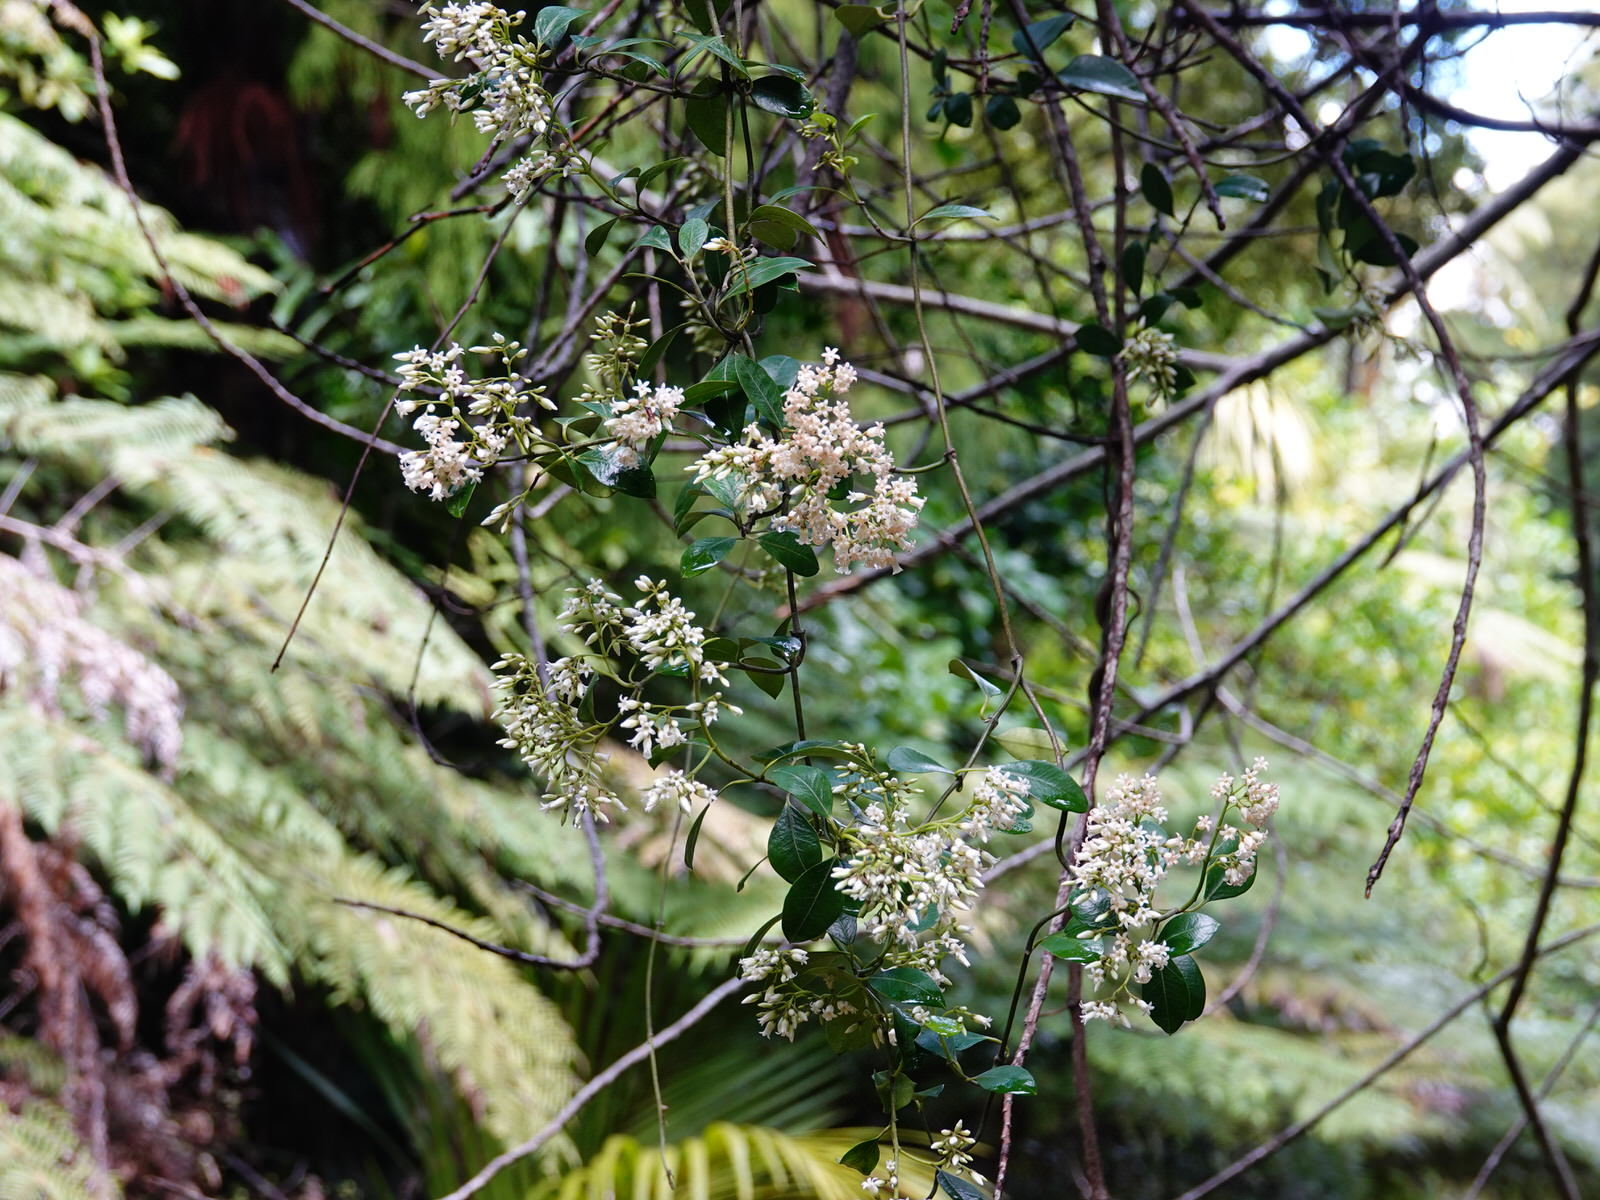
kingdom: Plantae
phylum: Tracheophyta
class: Magnoliopsida
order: Gentianales
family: Apocynaceae
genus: Parsonsia
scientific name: Parsonsia heterophylla
